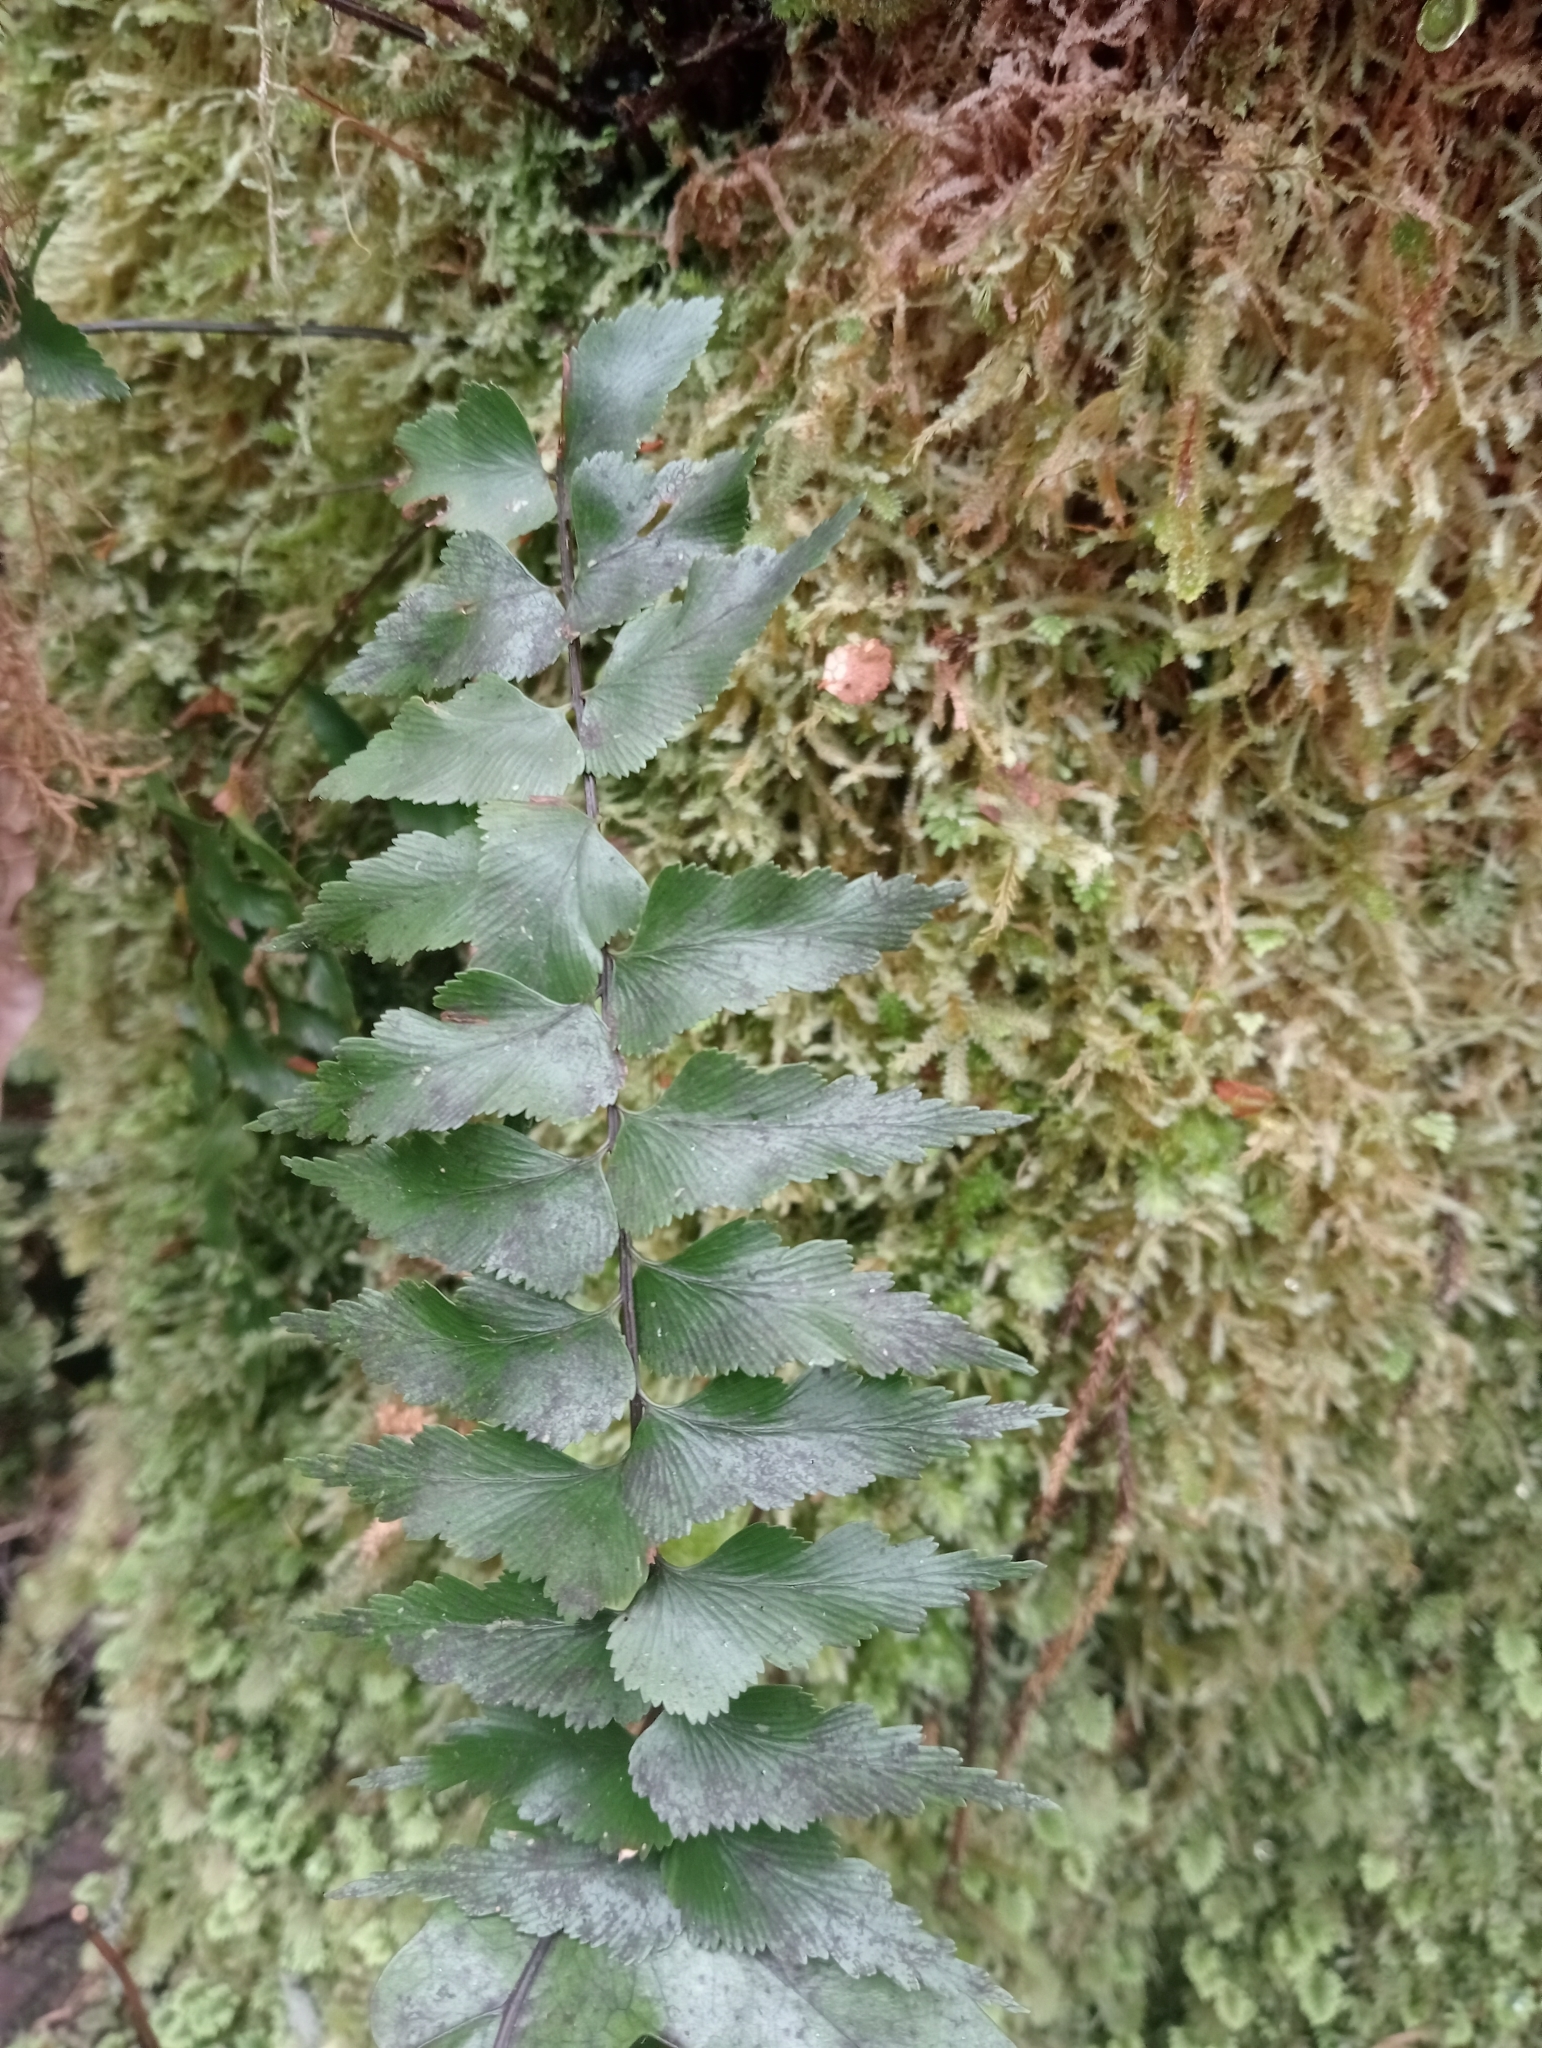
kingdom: Plantae
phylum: Tracheophyta
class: Polypodiopsida
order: Polypodiales
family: Aspleniaceae
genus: Asplenium
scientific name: Asplenium polyodon
